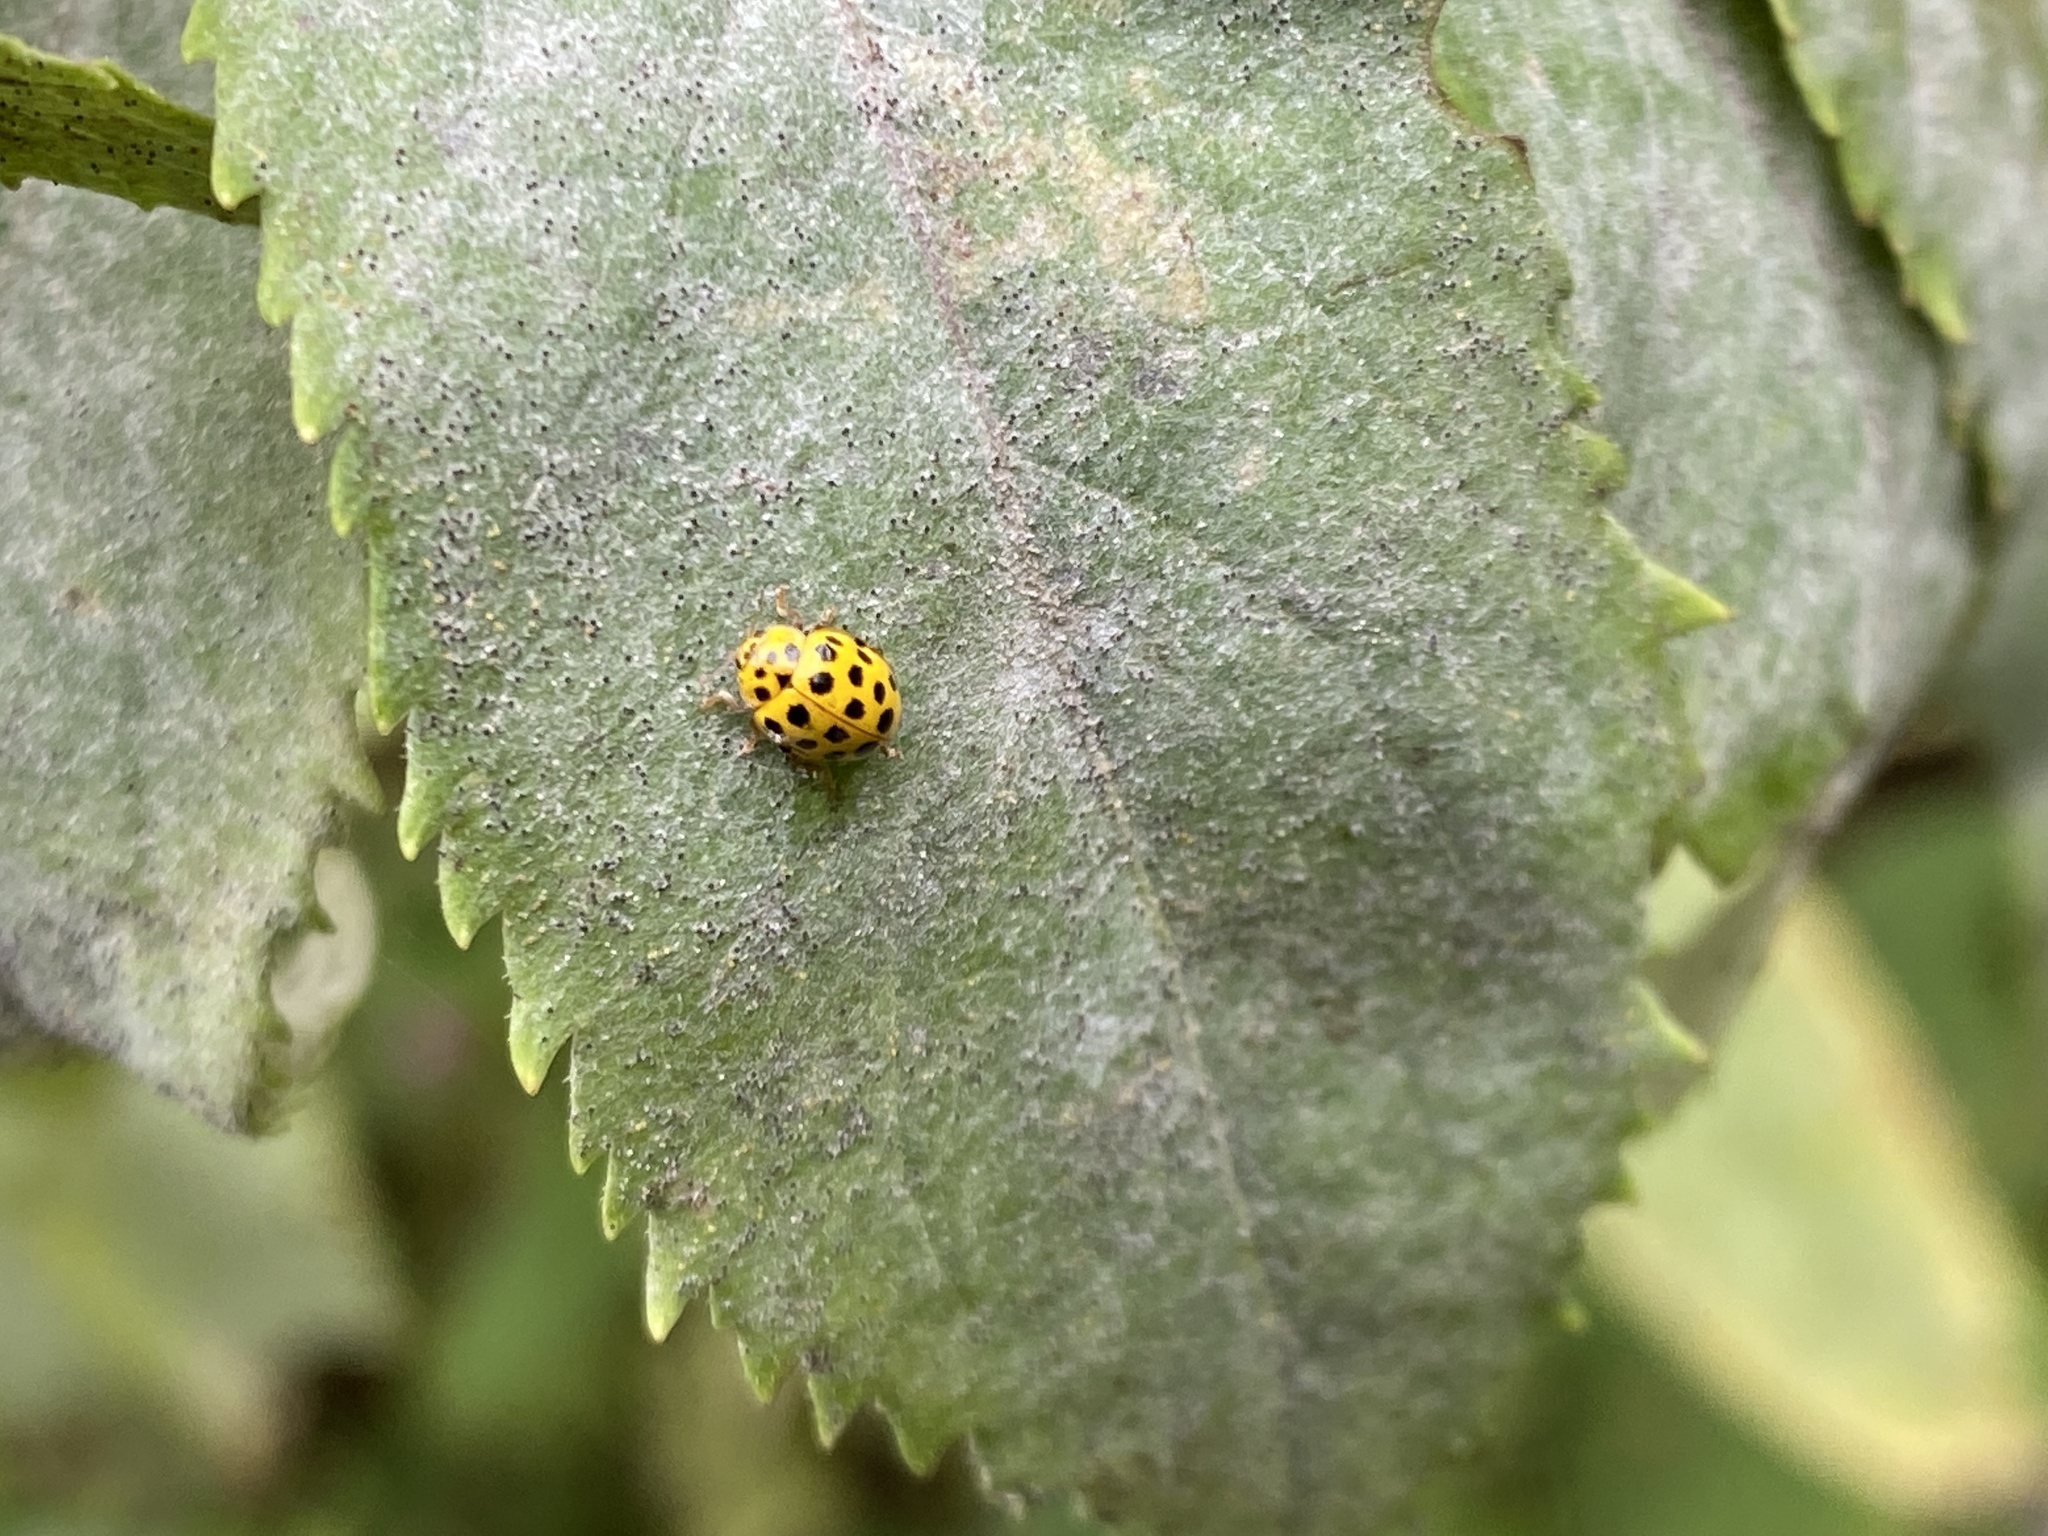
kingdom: Animalia
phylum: Arthropoda
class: Insecta
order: Coleoptera
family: Coccinellidae
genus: Psyllobora
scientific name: Psyllobora vigintiduopunctata
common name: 22-spot ladybird
